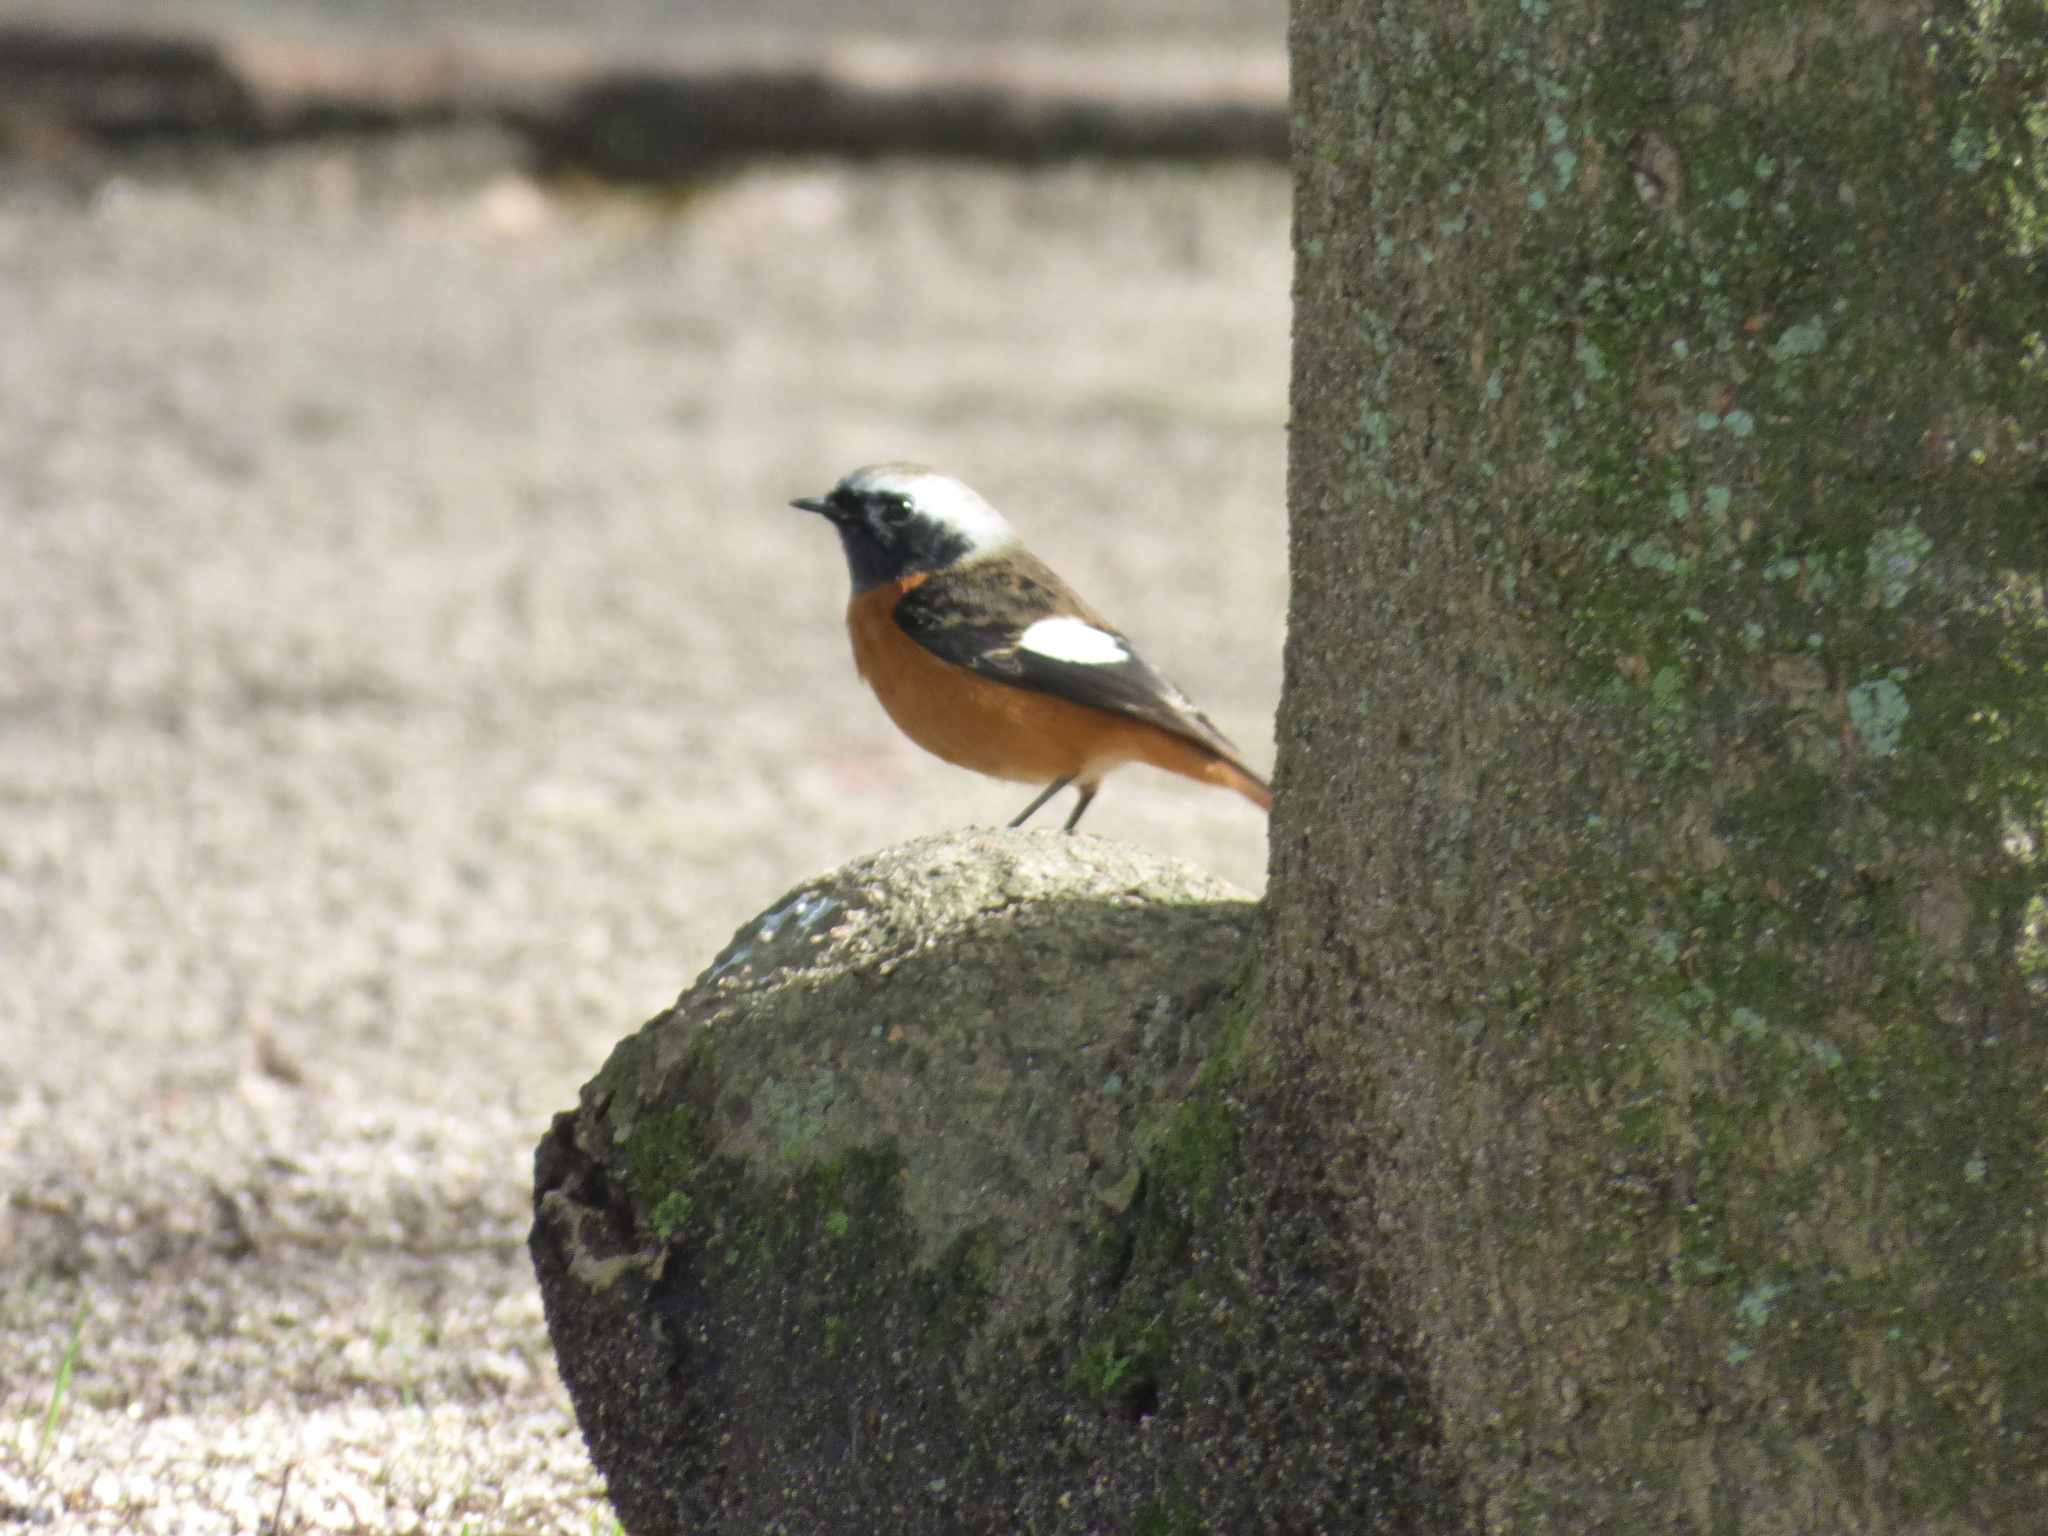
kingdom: Animalia
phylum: Chordata
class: Aves
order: Passeriformes
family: Muscicapidae
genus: Phoenicurus
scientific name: Phoenicurus auroreus
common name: Daurian redstart
